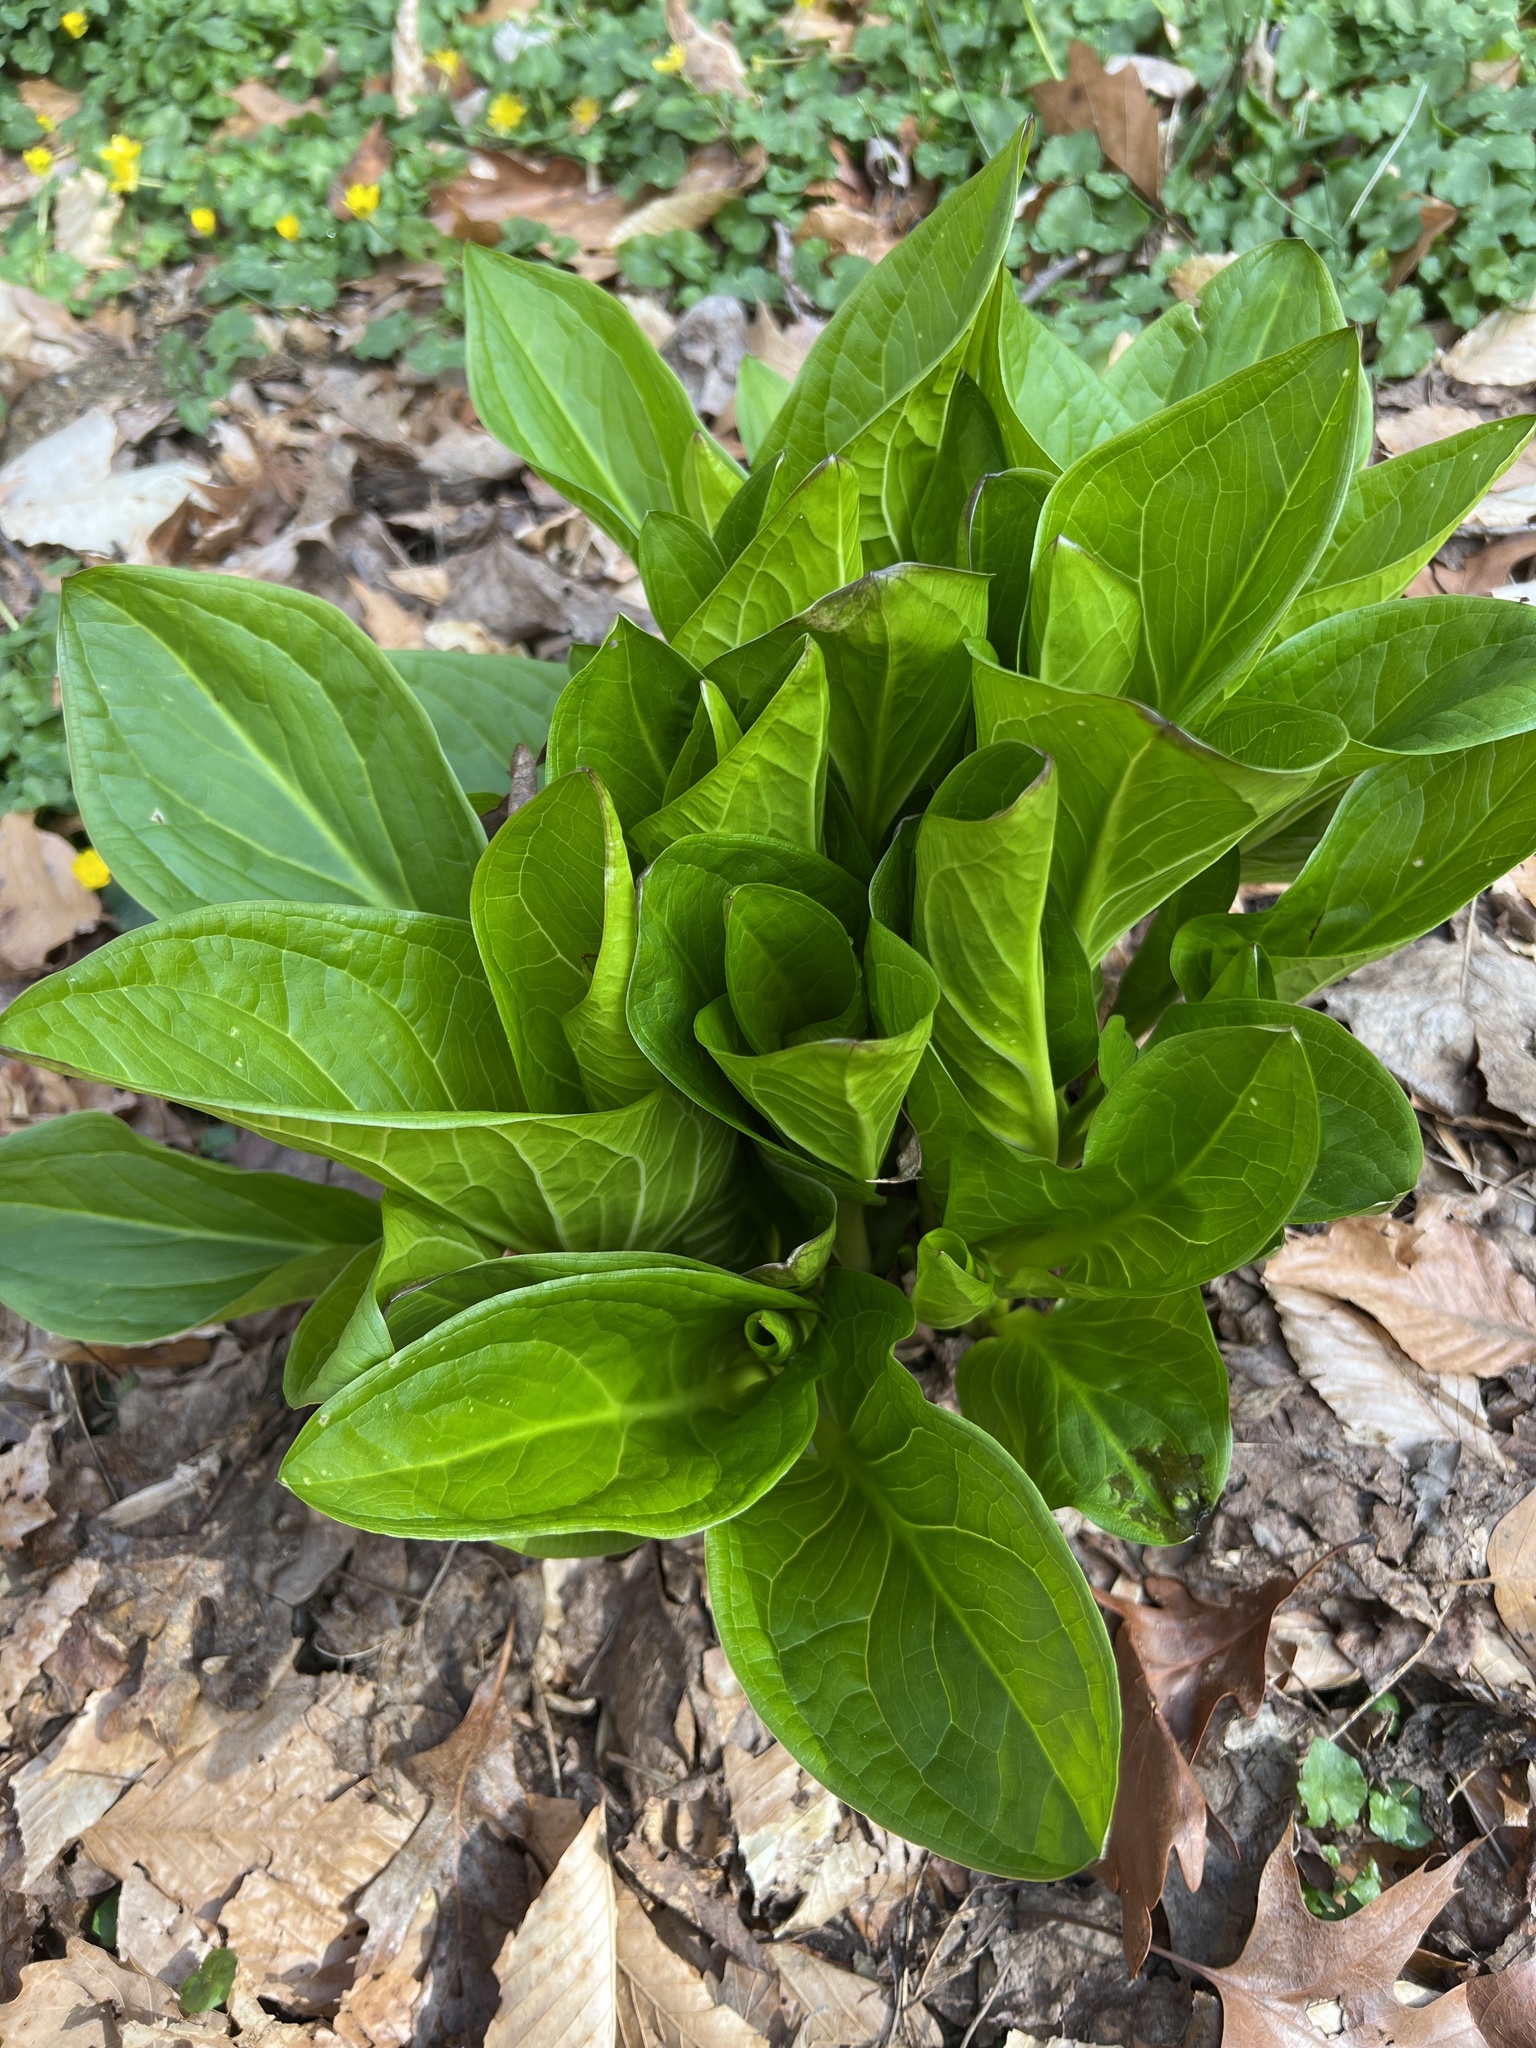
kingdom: Plantae
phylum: Tracheophyta
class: Liliopsida
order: Alismatales
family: Araceae
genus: Symplocarpus
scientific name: Symplocarpus foetidus
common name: Eastern skunk cabbage
